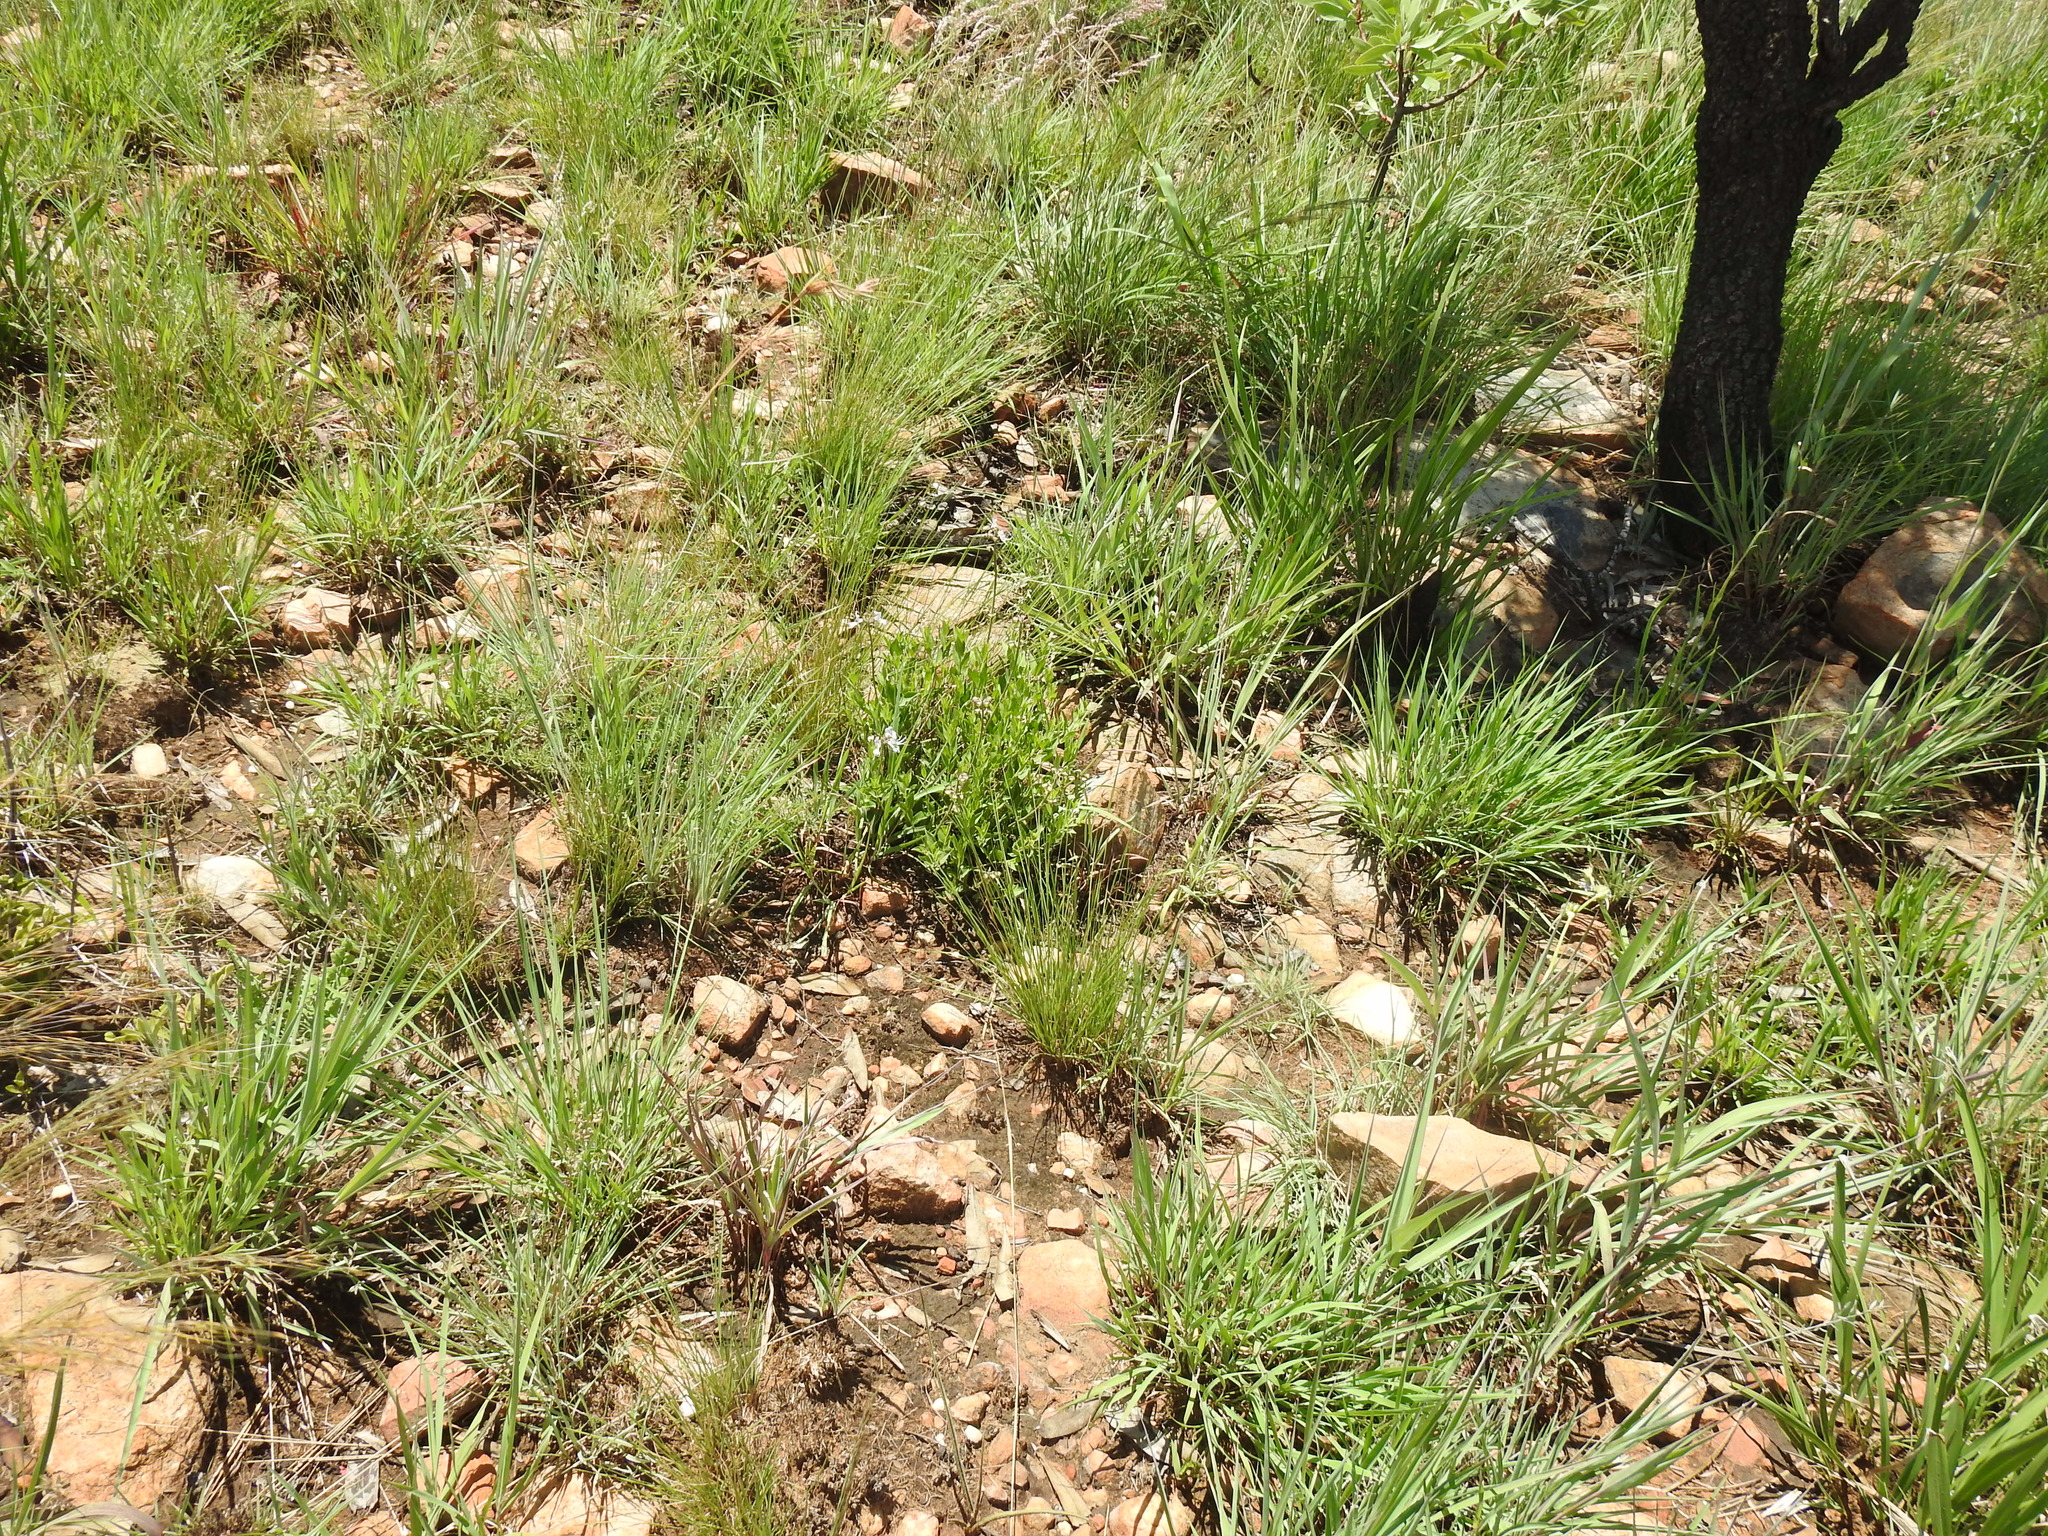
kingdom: Plantae
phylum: Tracheophyta
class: Magnoliopsida
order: Lamiales
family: Lamiaceae
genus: Ocimum
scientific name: Ocimum obovatum
